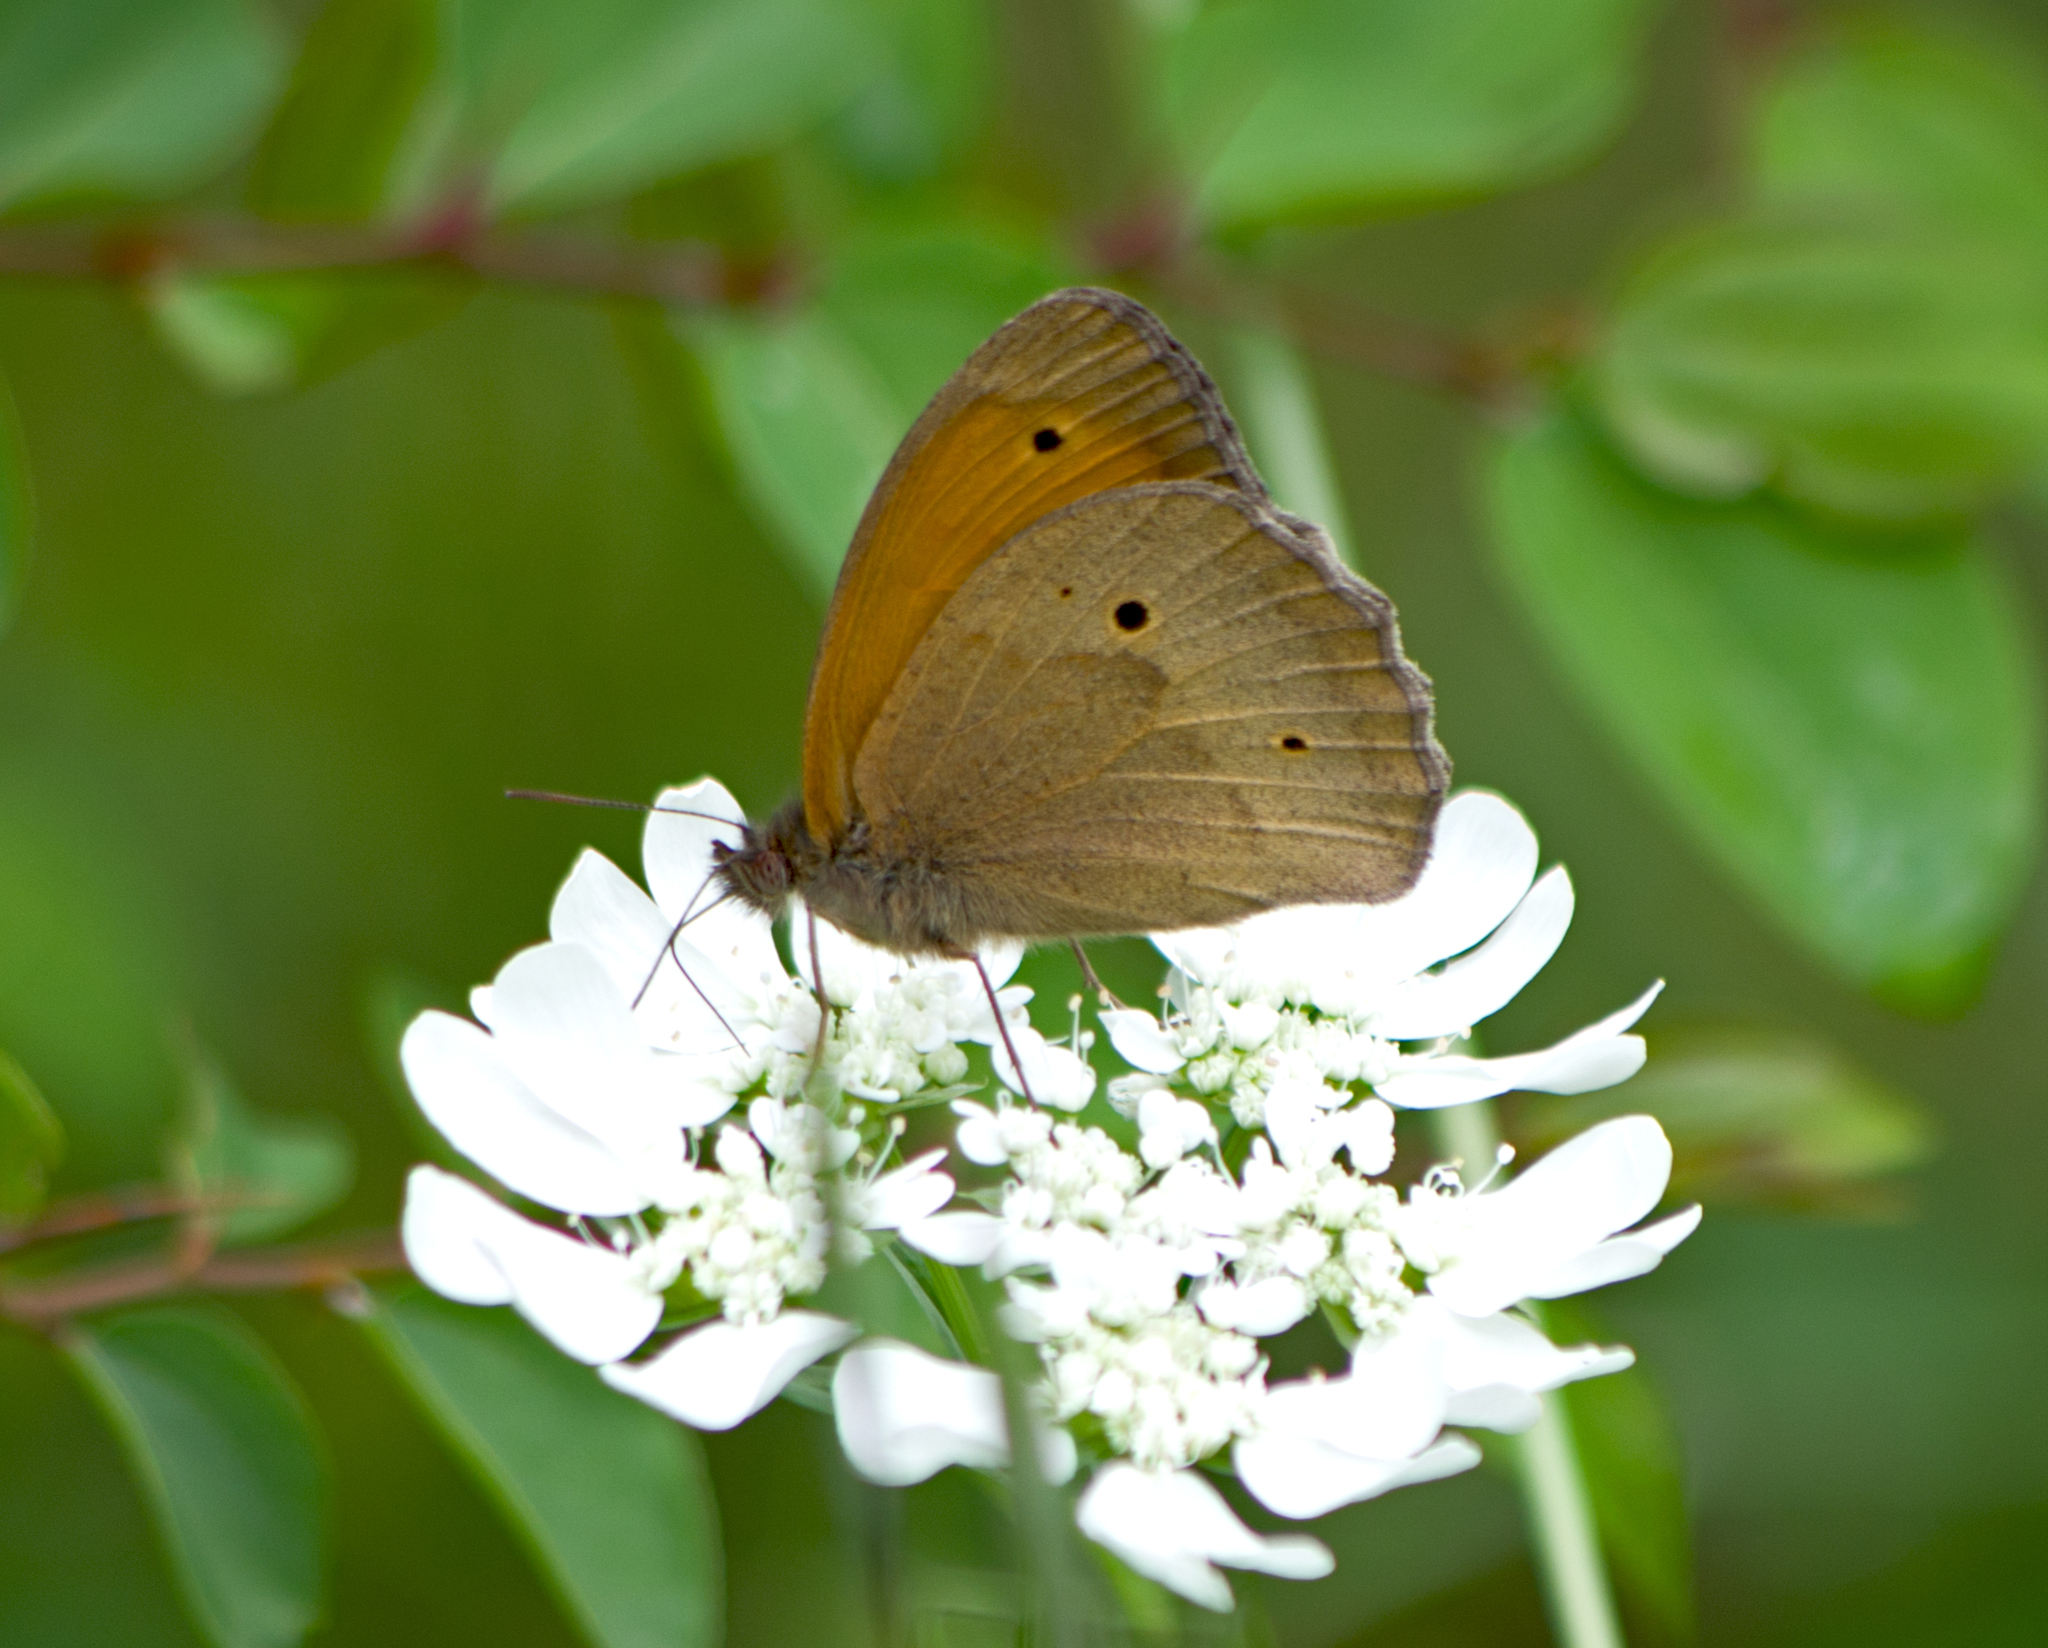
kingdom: Animalia
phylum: Arthropoda
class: Insecta
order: Lepidoptera
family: Nymphalidae
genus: Maniola
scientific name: Maniola jurtina
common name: Meadow brown
